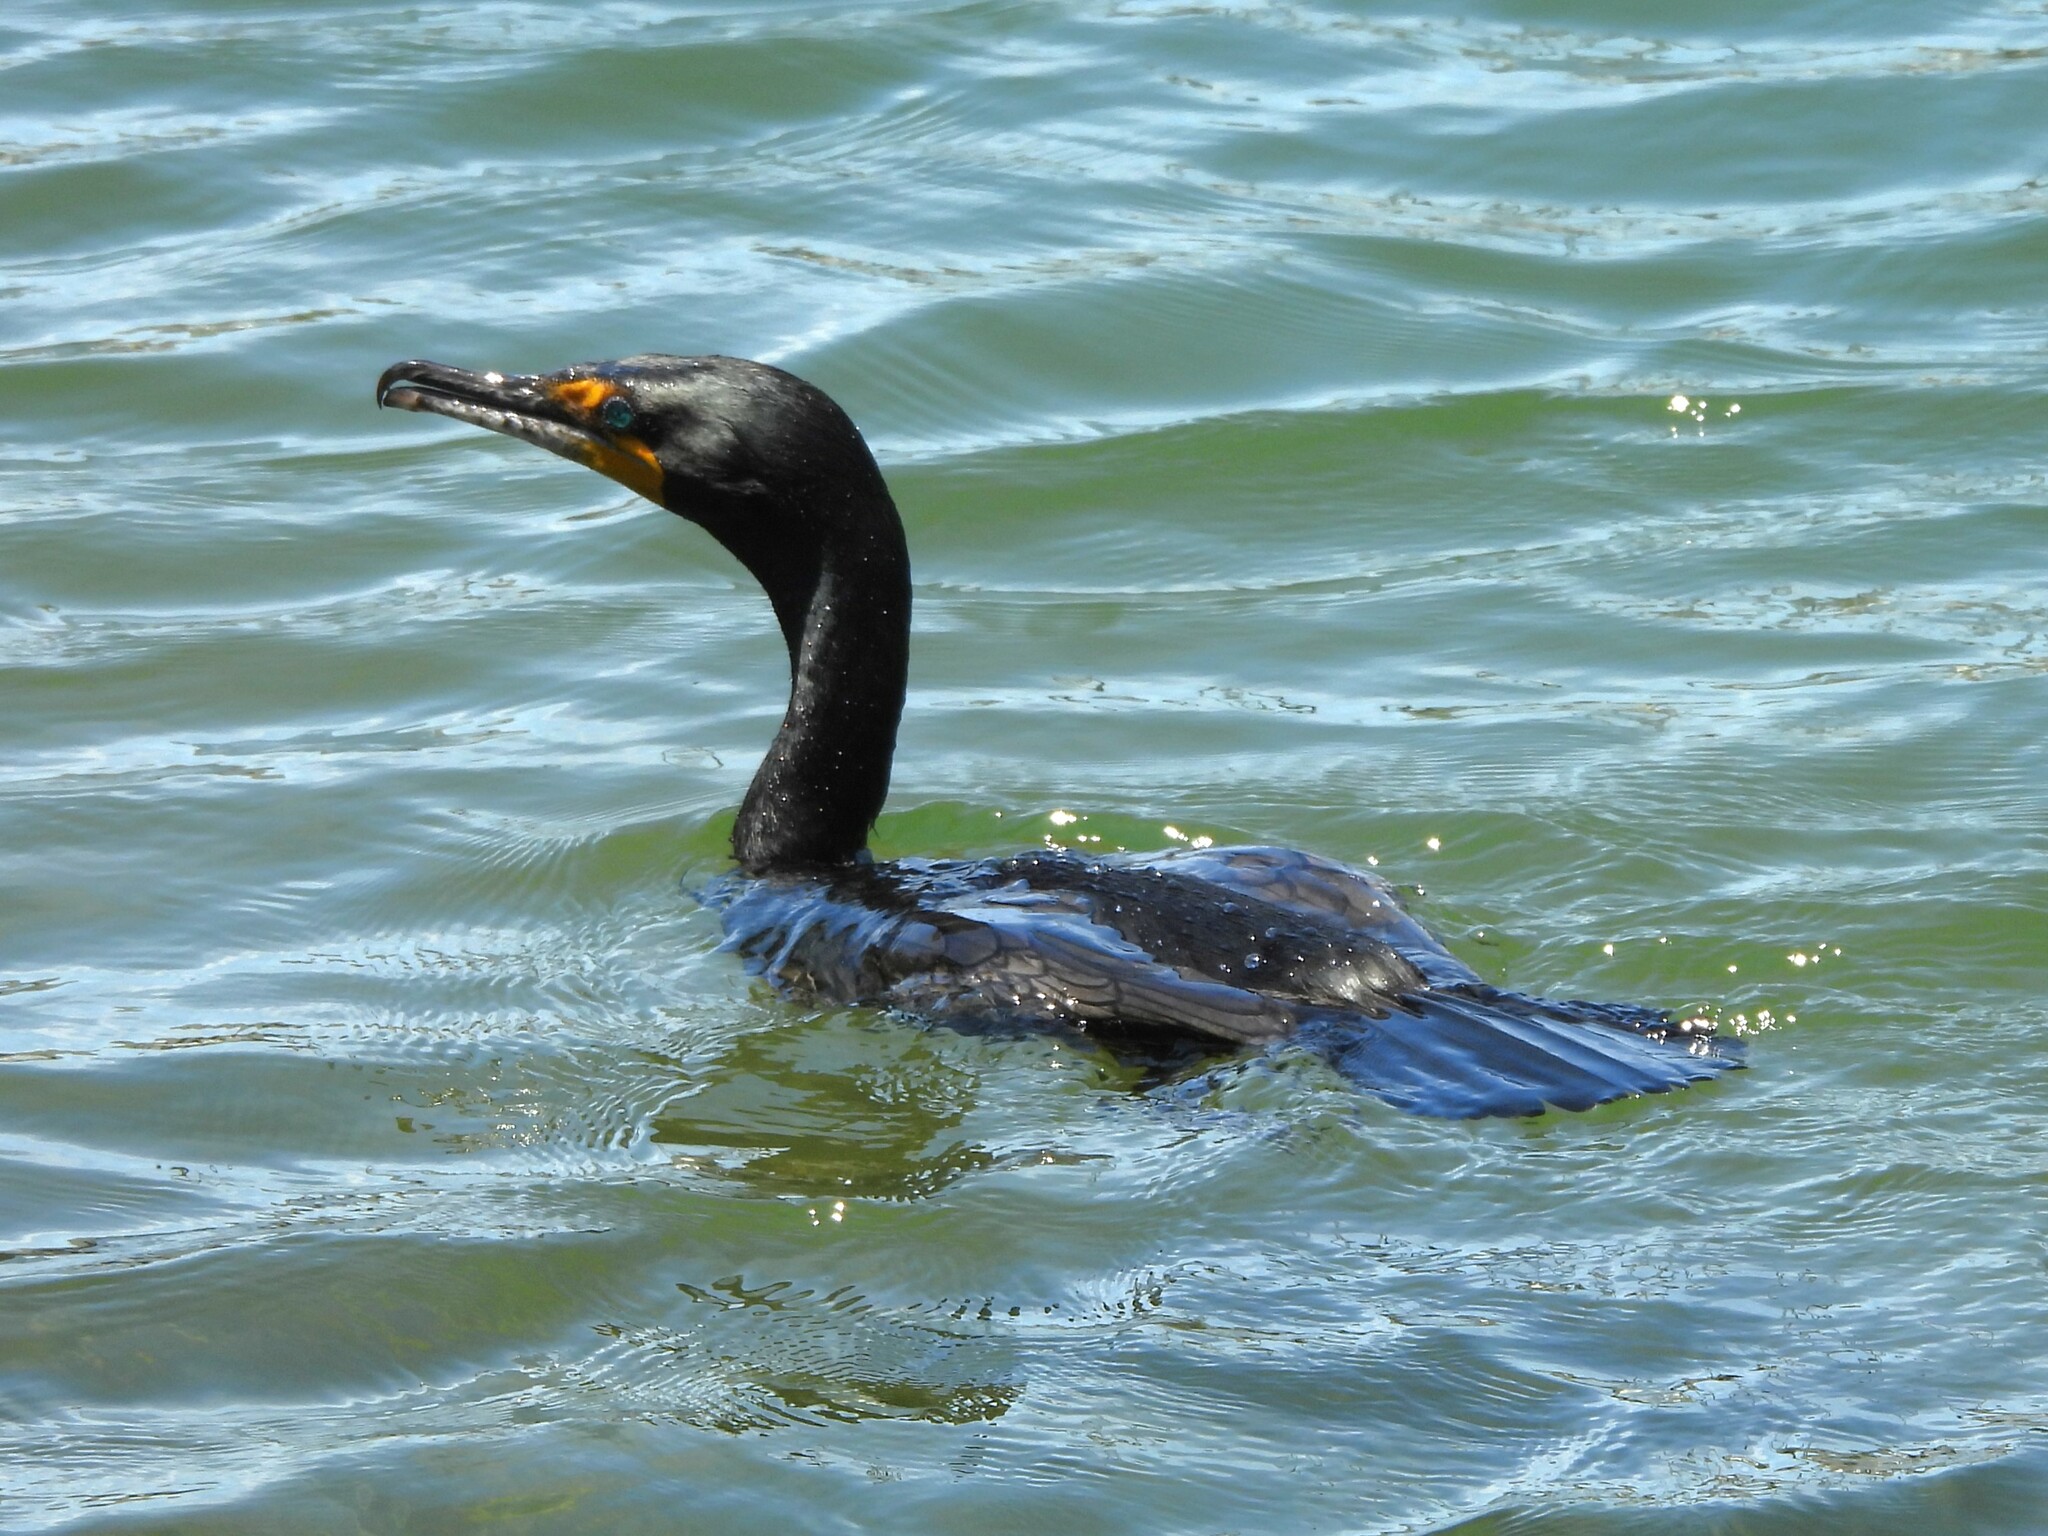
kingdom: Animalia
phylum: Chordata
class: Aves
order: Suliformes
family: Phalacrocoracidae
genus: Phalacrocorax
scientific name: Phalacrocorax auritus
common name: Double-crested cormorant
